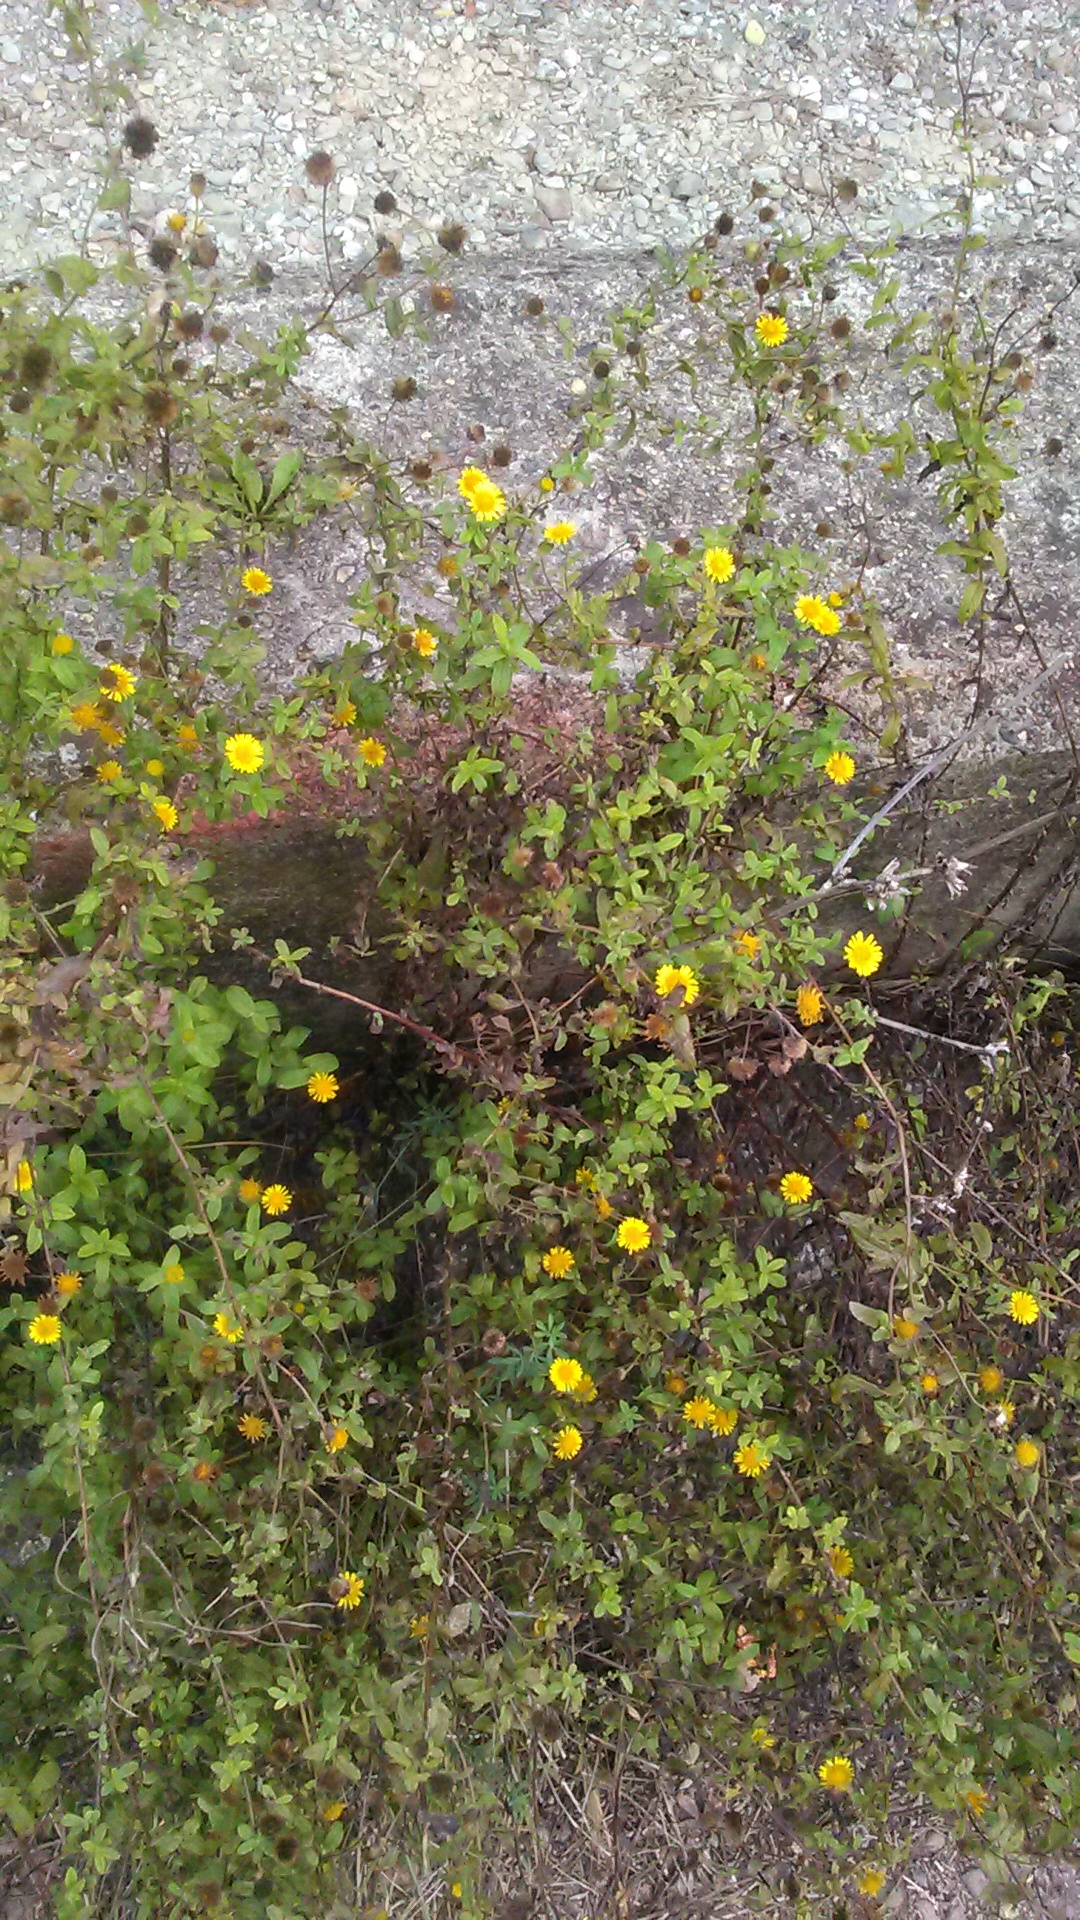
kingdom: Plantae
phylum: Tracheophyta
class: Magnoliopsida
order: Asterales
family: Asteraceae
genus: Pulicaria
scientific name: Pulicaria dysenterica
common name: Common fleabane
